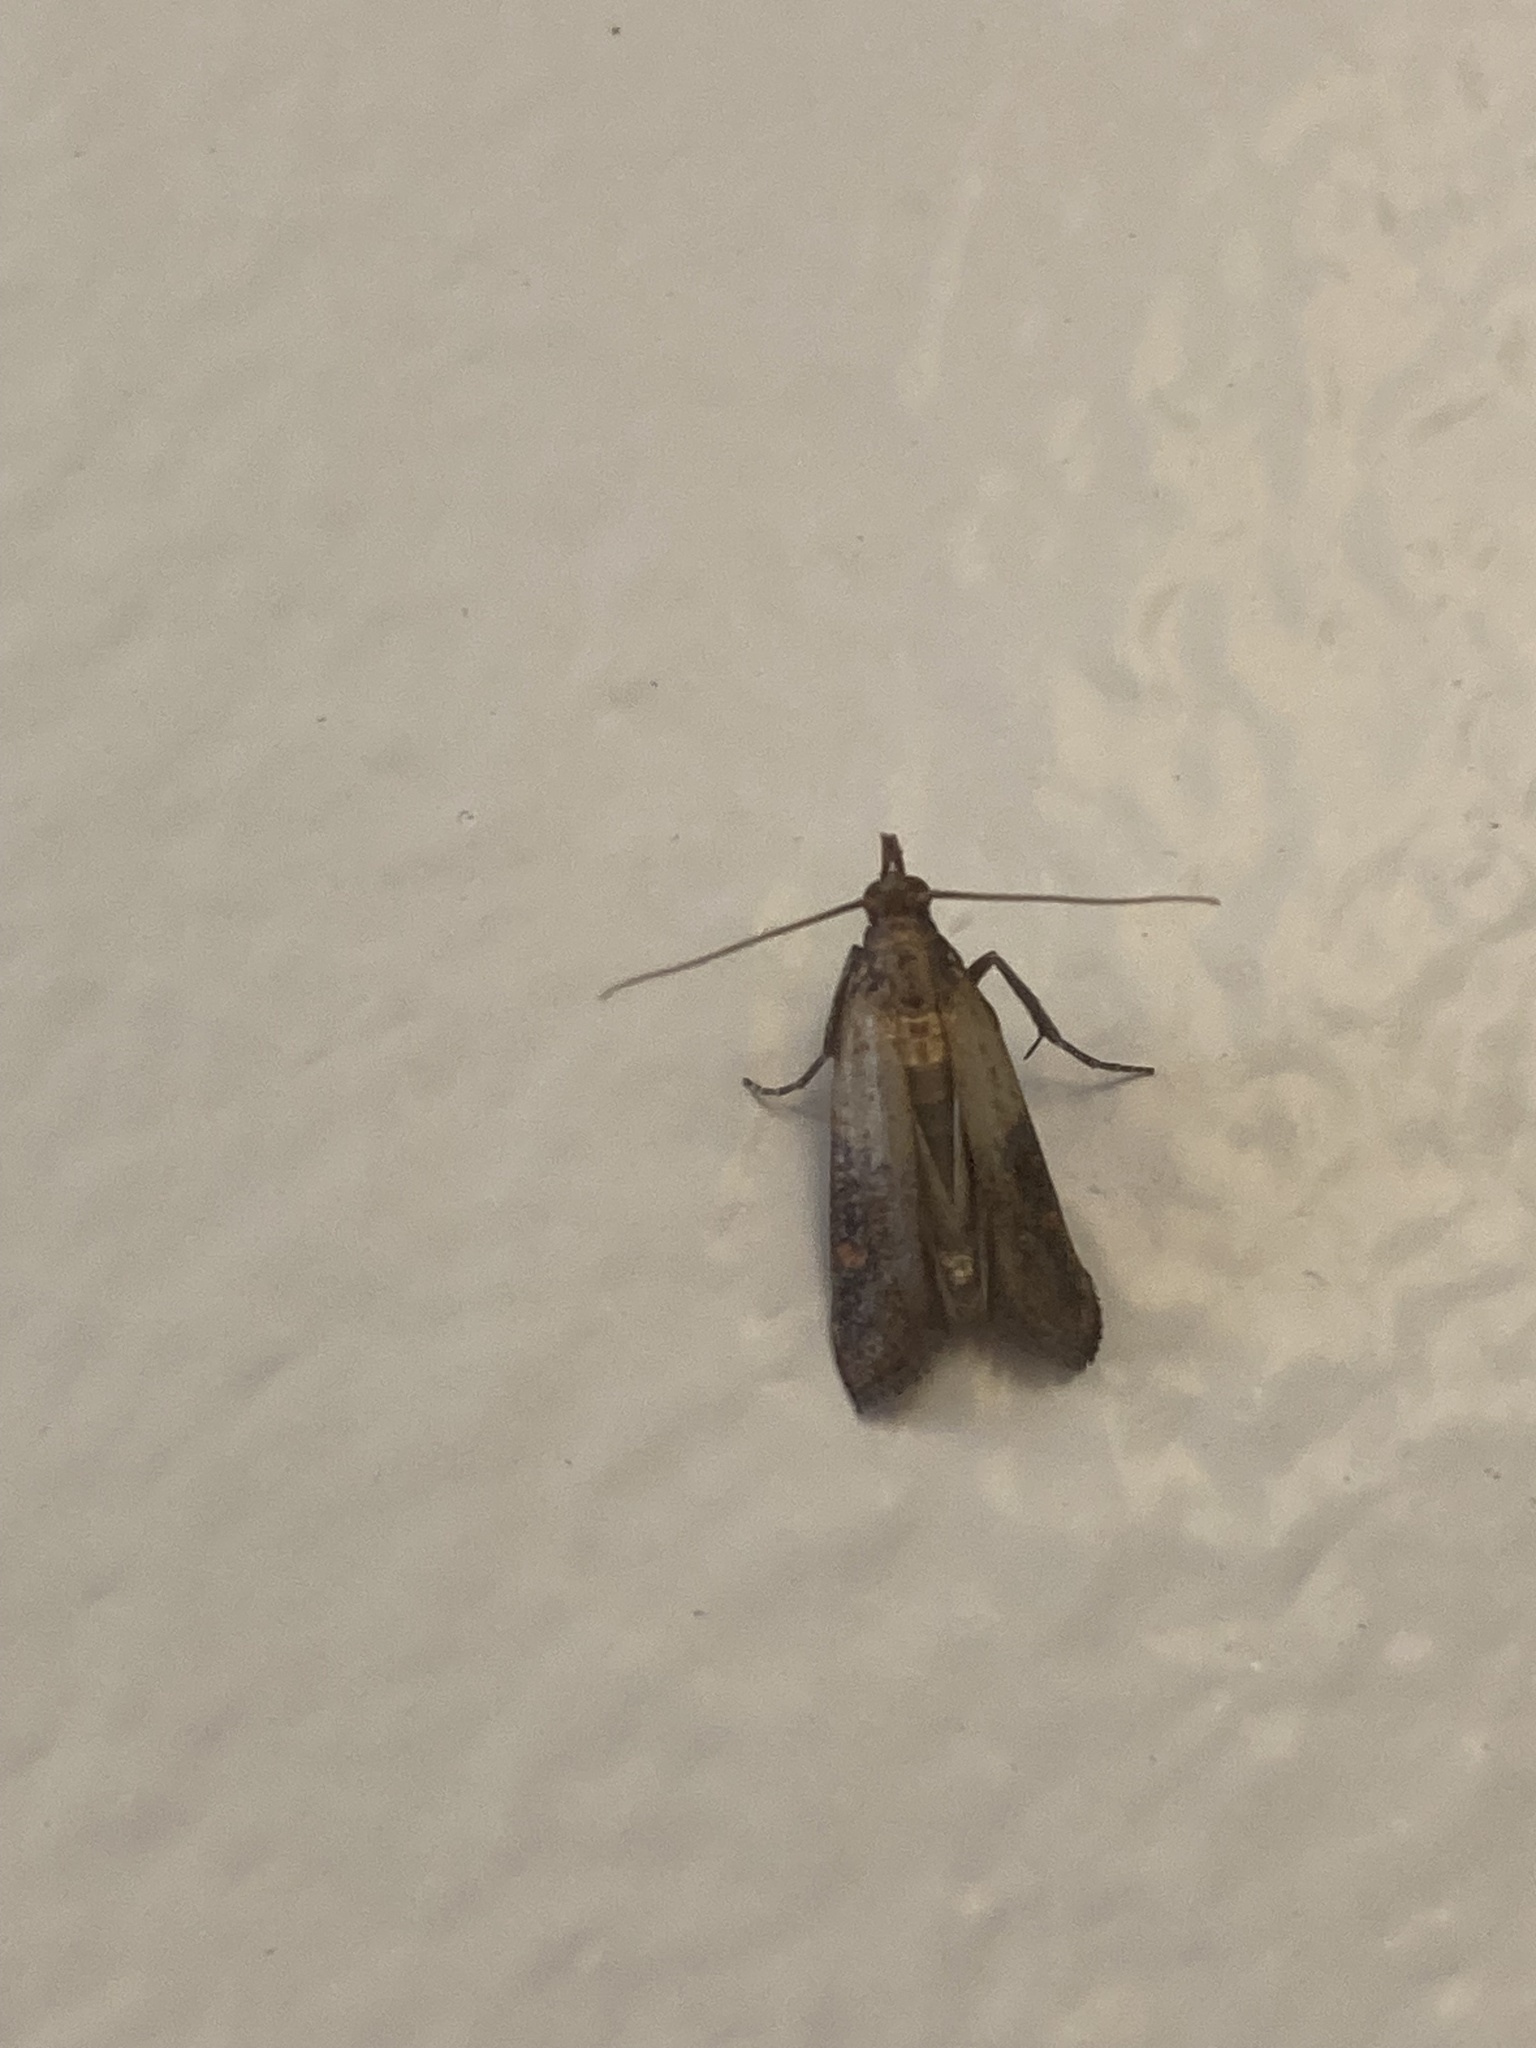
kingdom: Animalia
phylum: Arthropoda
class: Insecta
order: Lepidoptera
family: Pyralidae
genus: Plodia
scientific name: Plodia interpunctella
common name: Indian meal moth
